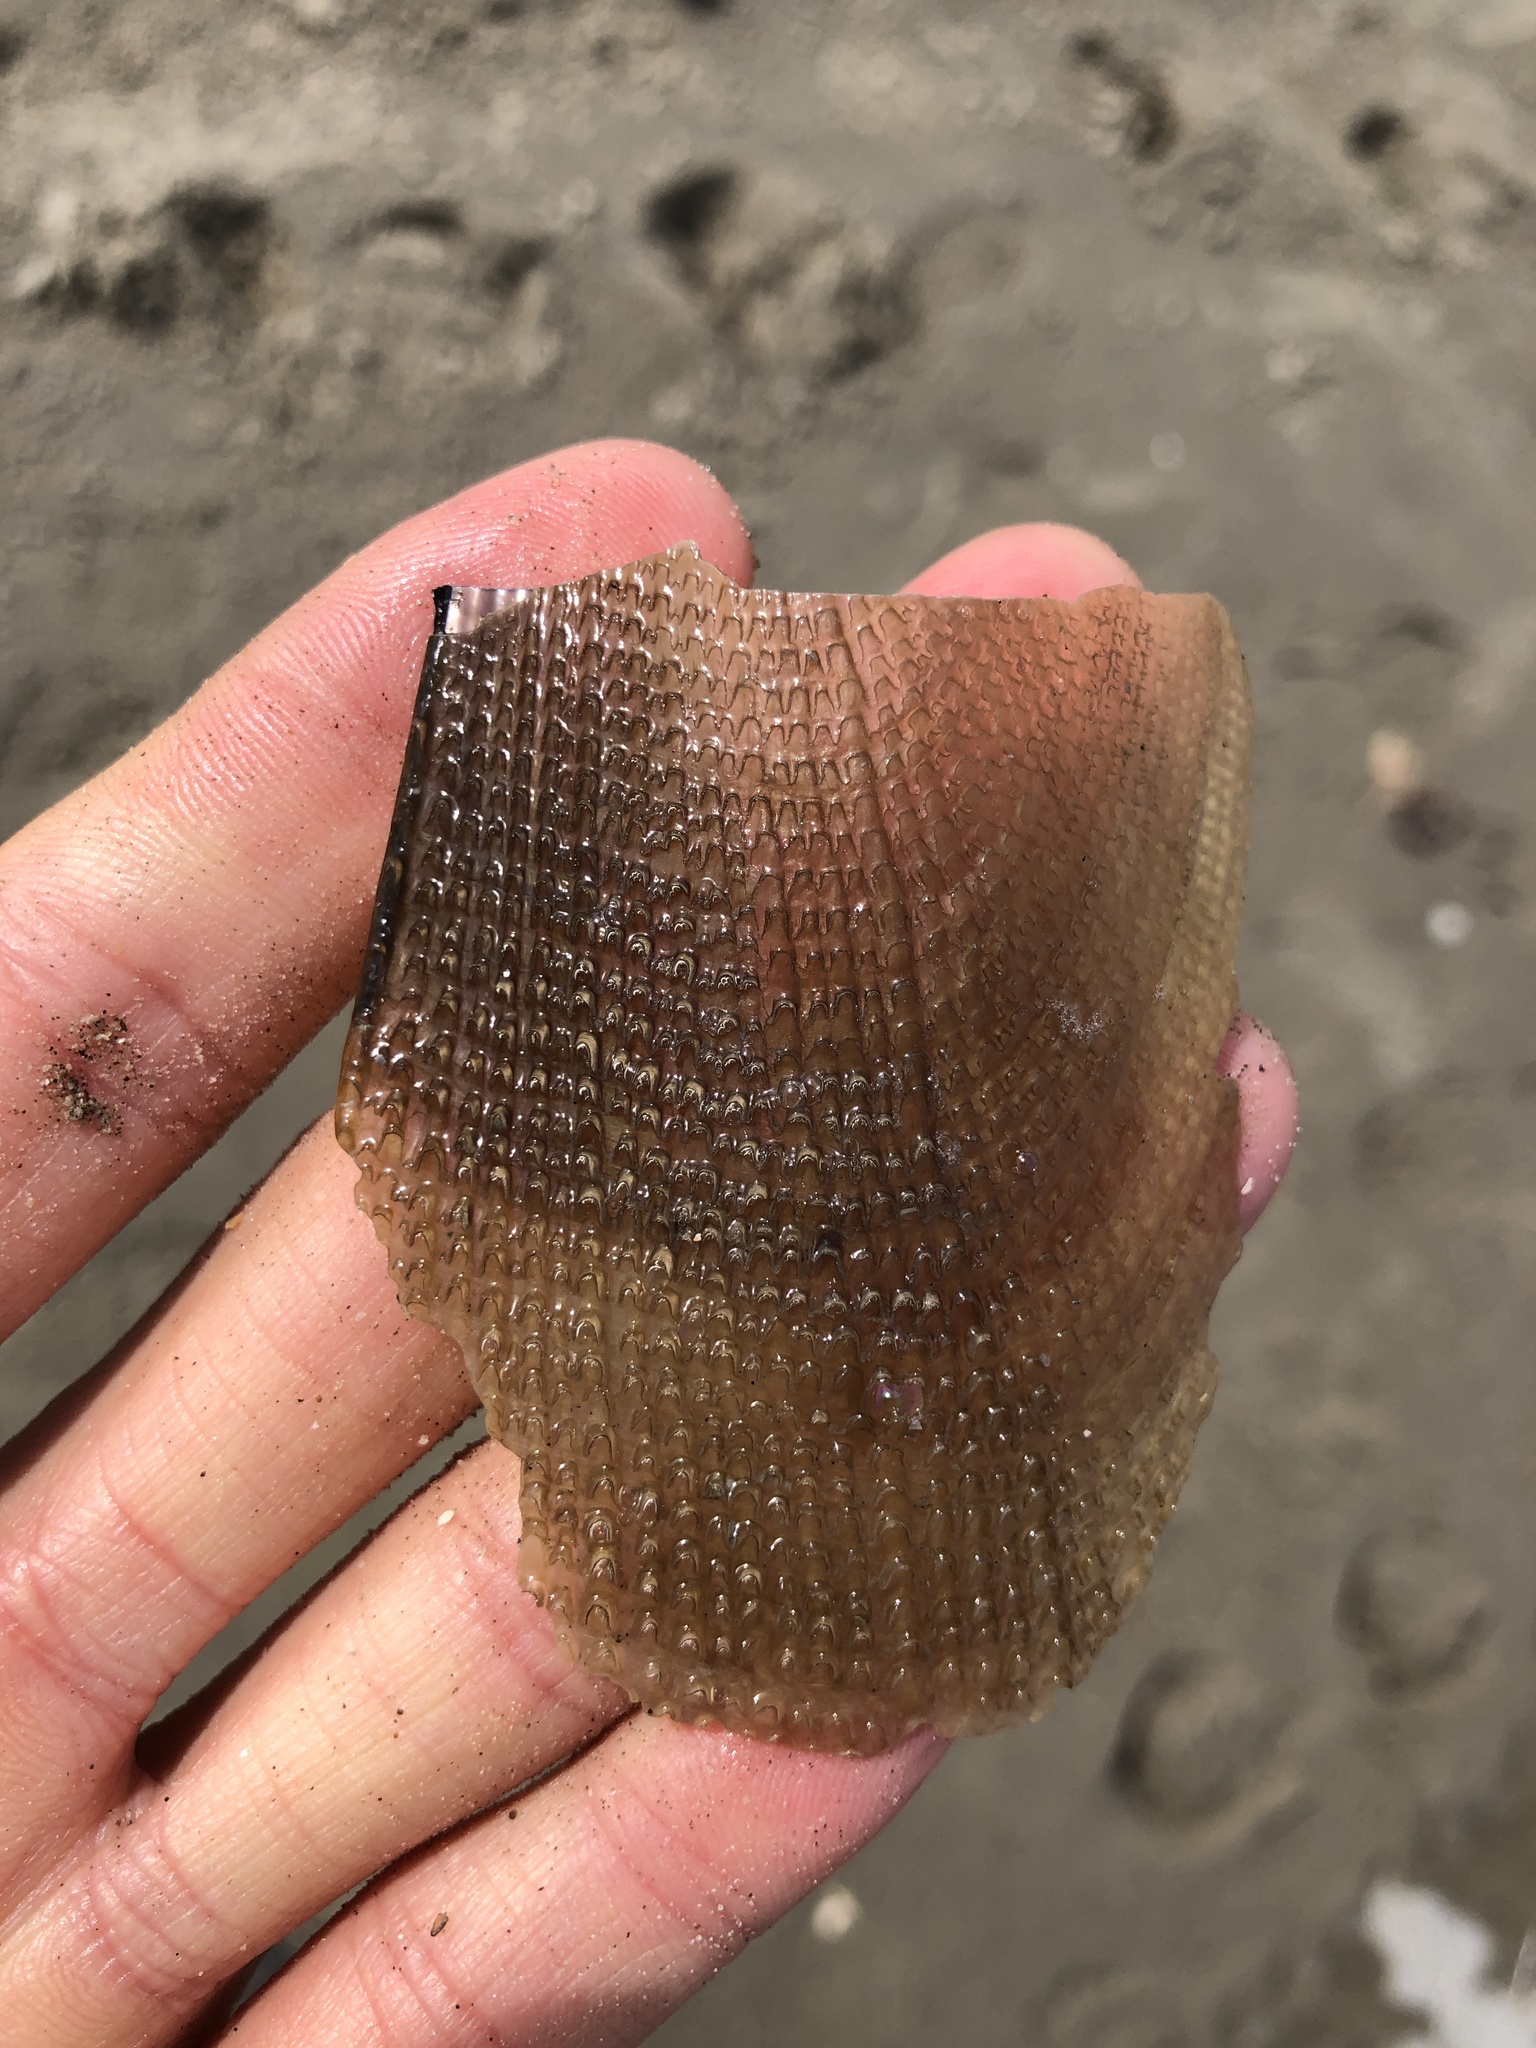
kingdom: Animalia
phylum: Mollusca
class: Bivalvia
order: Ostreida
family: Pinnidae
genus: Atrina
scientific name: Atrina serrata
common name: Saw-toothed penshell
